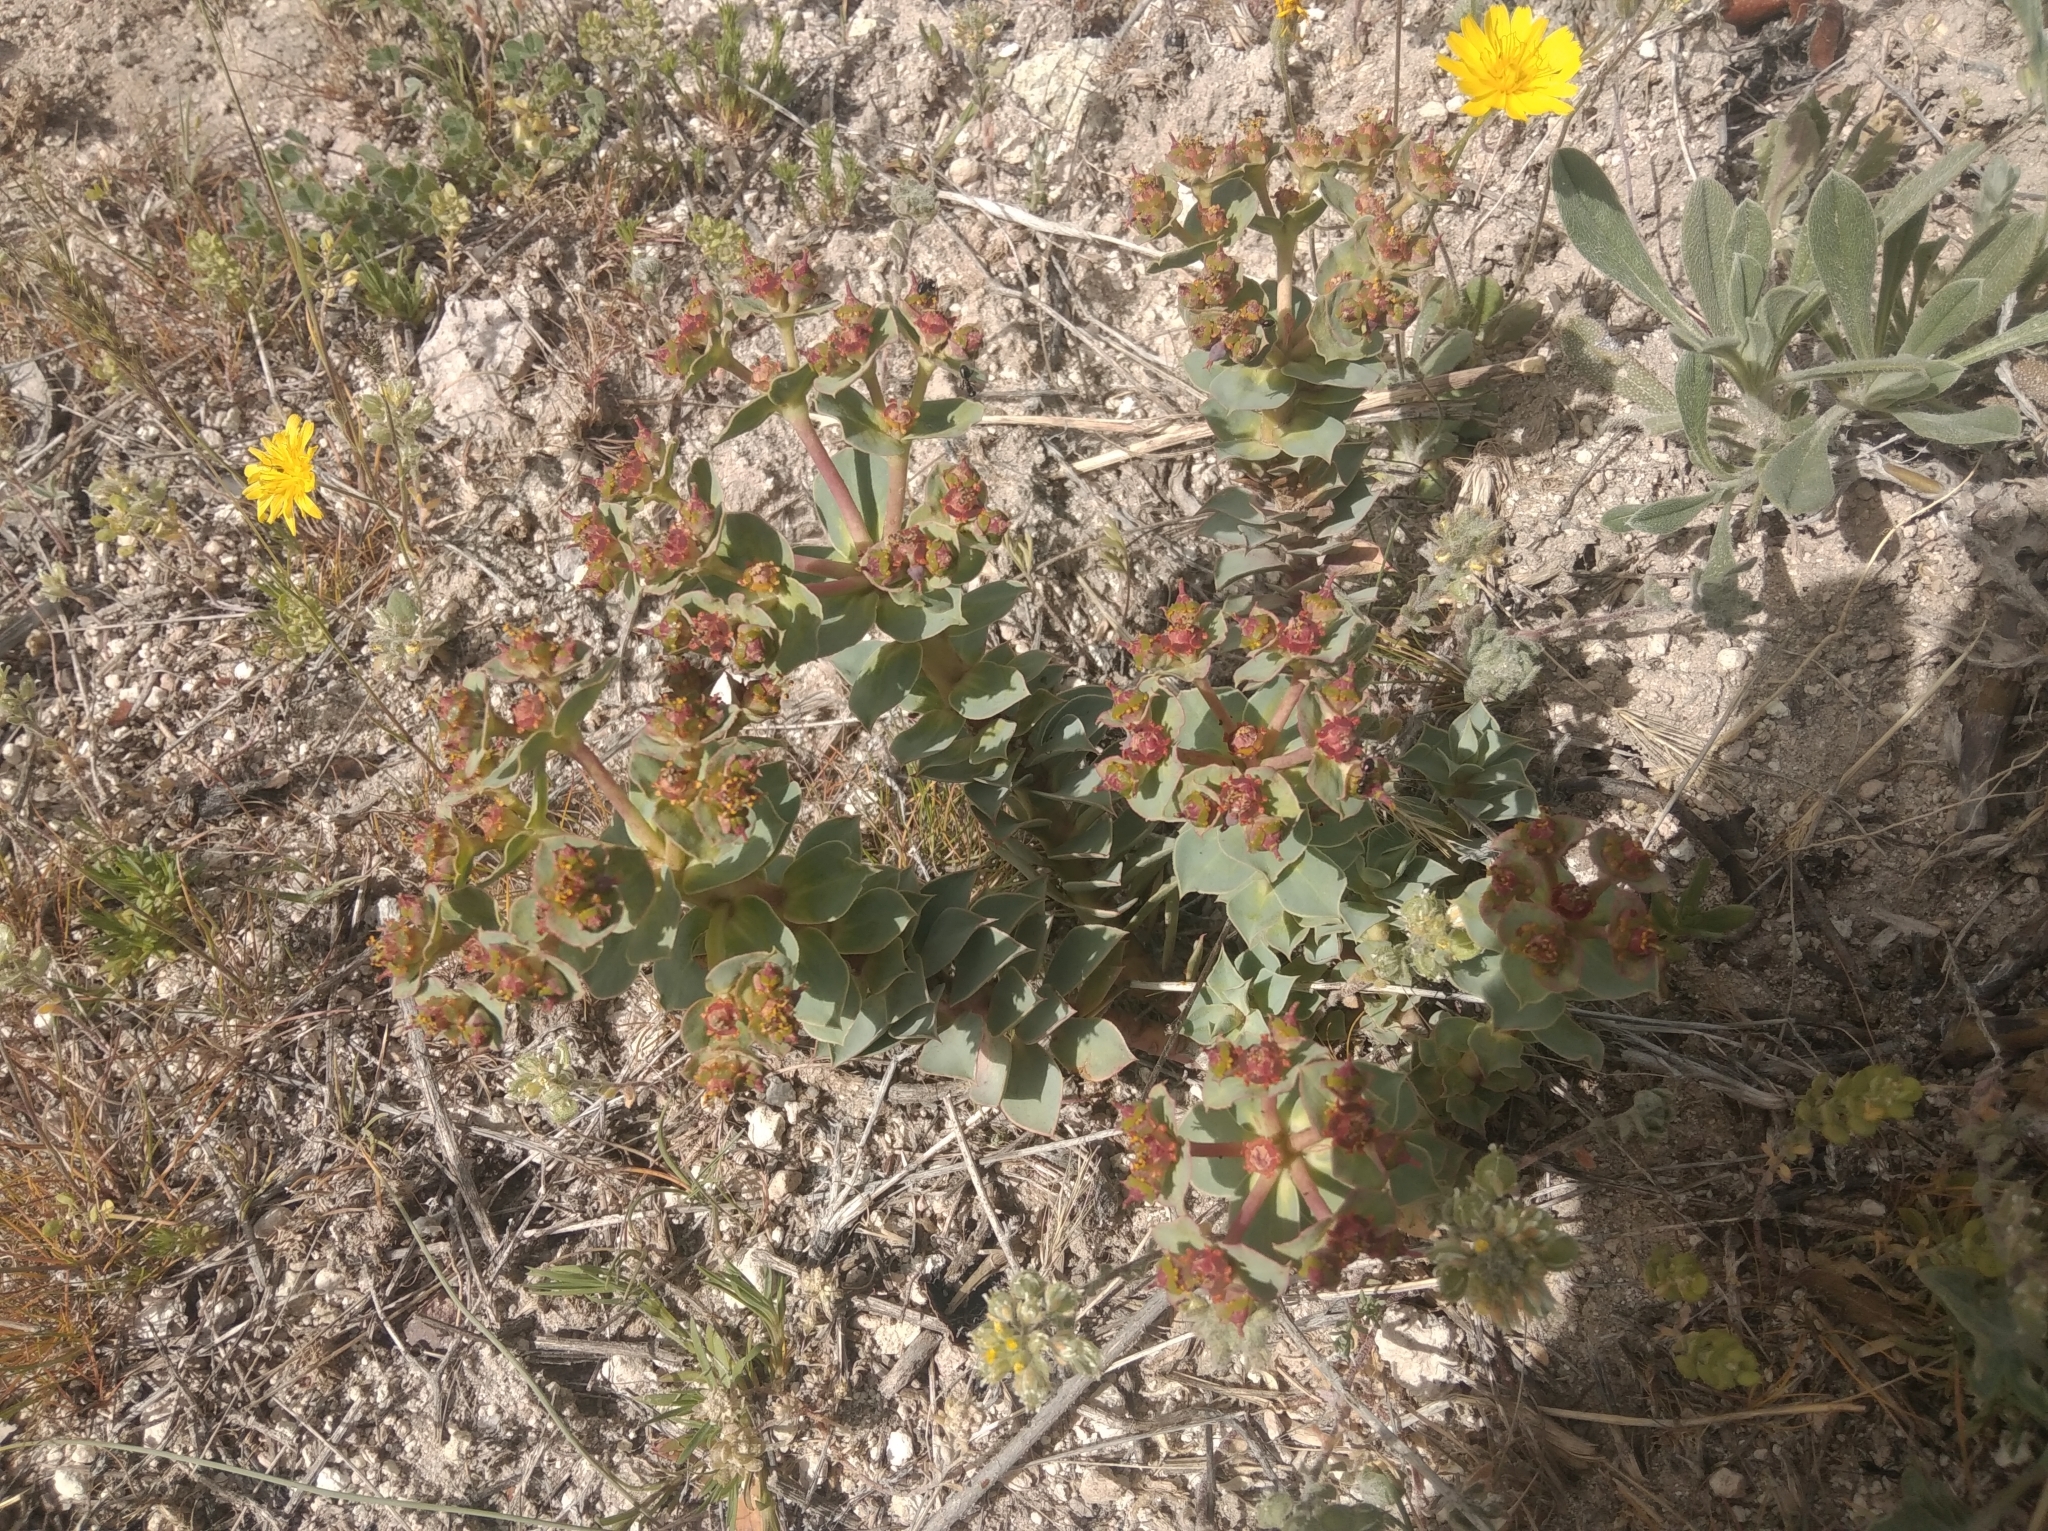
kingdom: Plantae
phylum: Tracheophyta
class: Magnoliopsida
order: Malpighiales
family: Euphorbiaceae
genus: Euphorbia
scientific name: Euphorbia myrsinites
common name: Myrtle spurge
